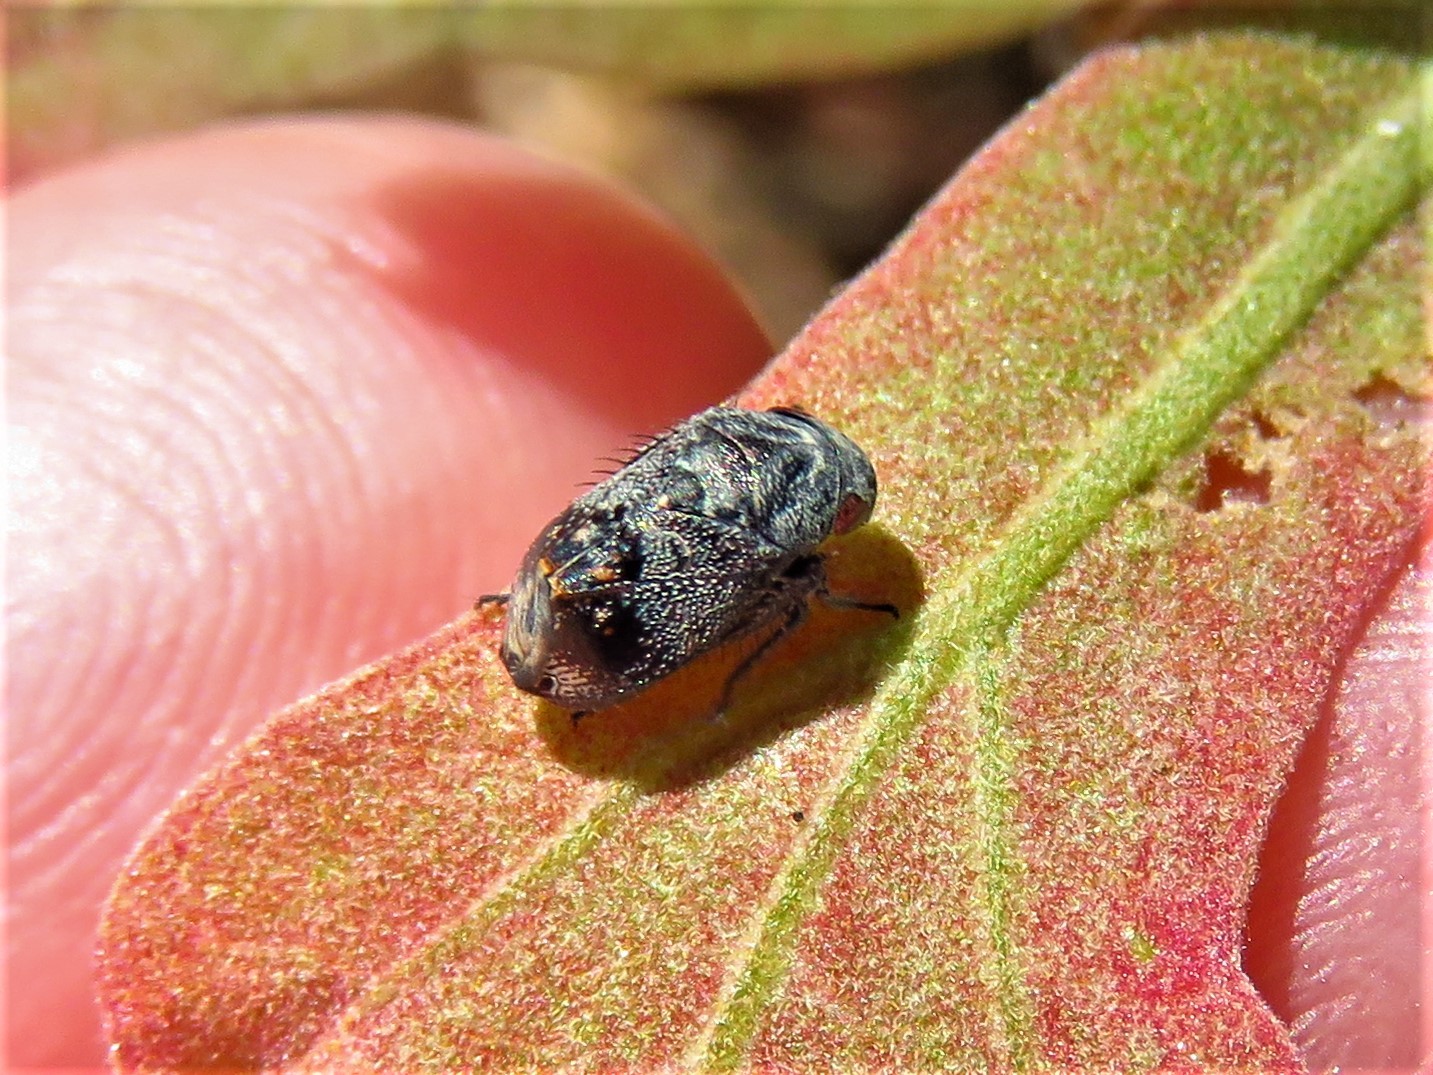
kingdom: Animalia
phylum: Arthropoda
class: Insecta
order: Hemiptera
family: Cicadellidae
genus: Penthimia
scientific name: Penthimia americana
